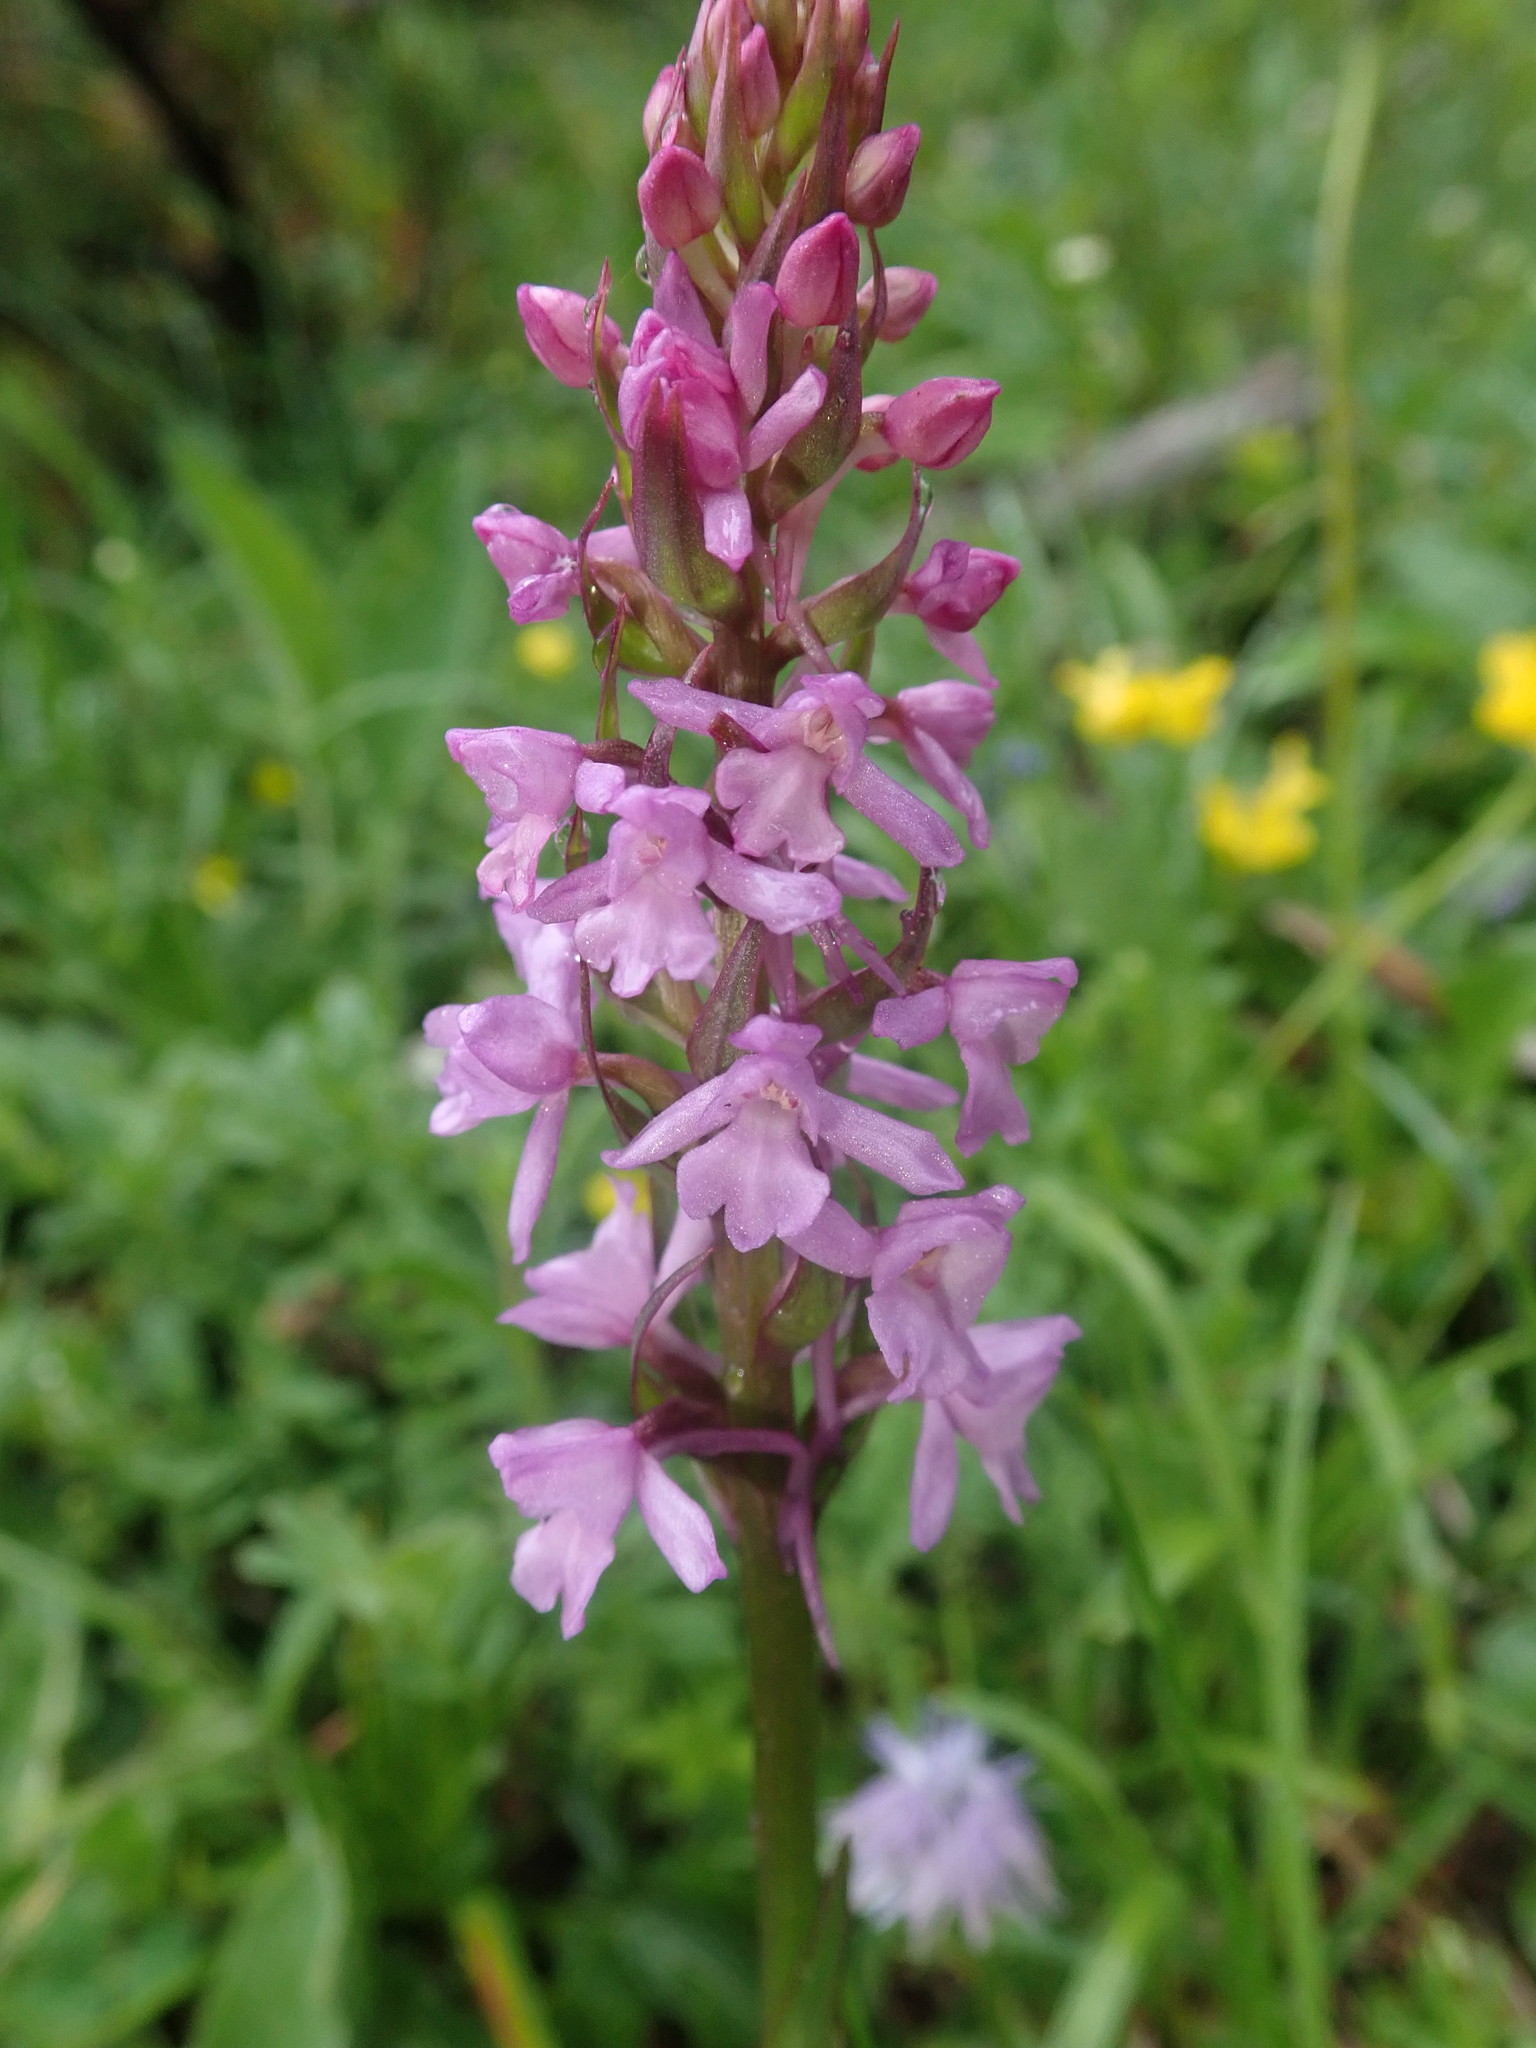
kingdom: Plantae
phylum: Tracheophyta
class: Liliopsida
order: Asparagales
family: Orchidaceae
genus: Gymnadenia
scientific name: Gymnadenia conopsea
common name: Fragrant orchid
